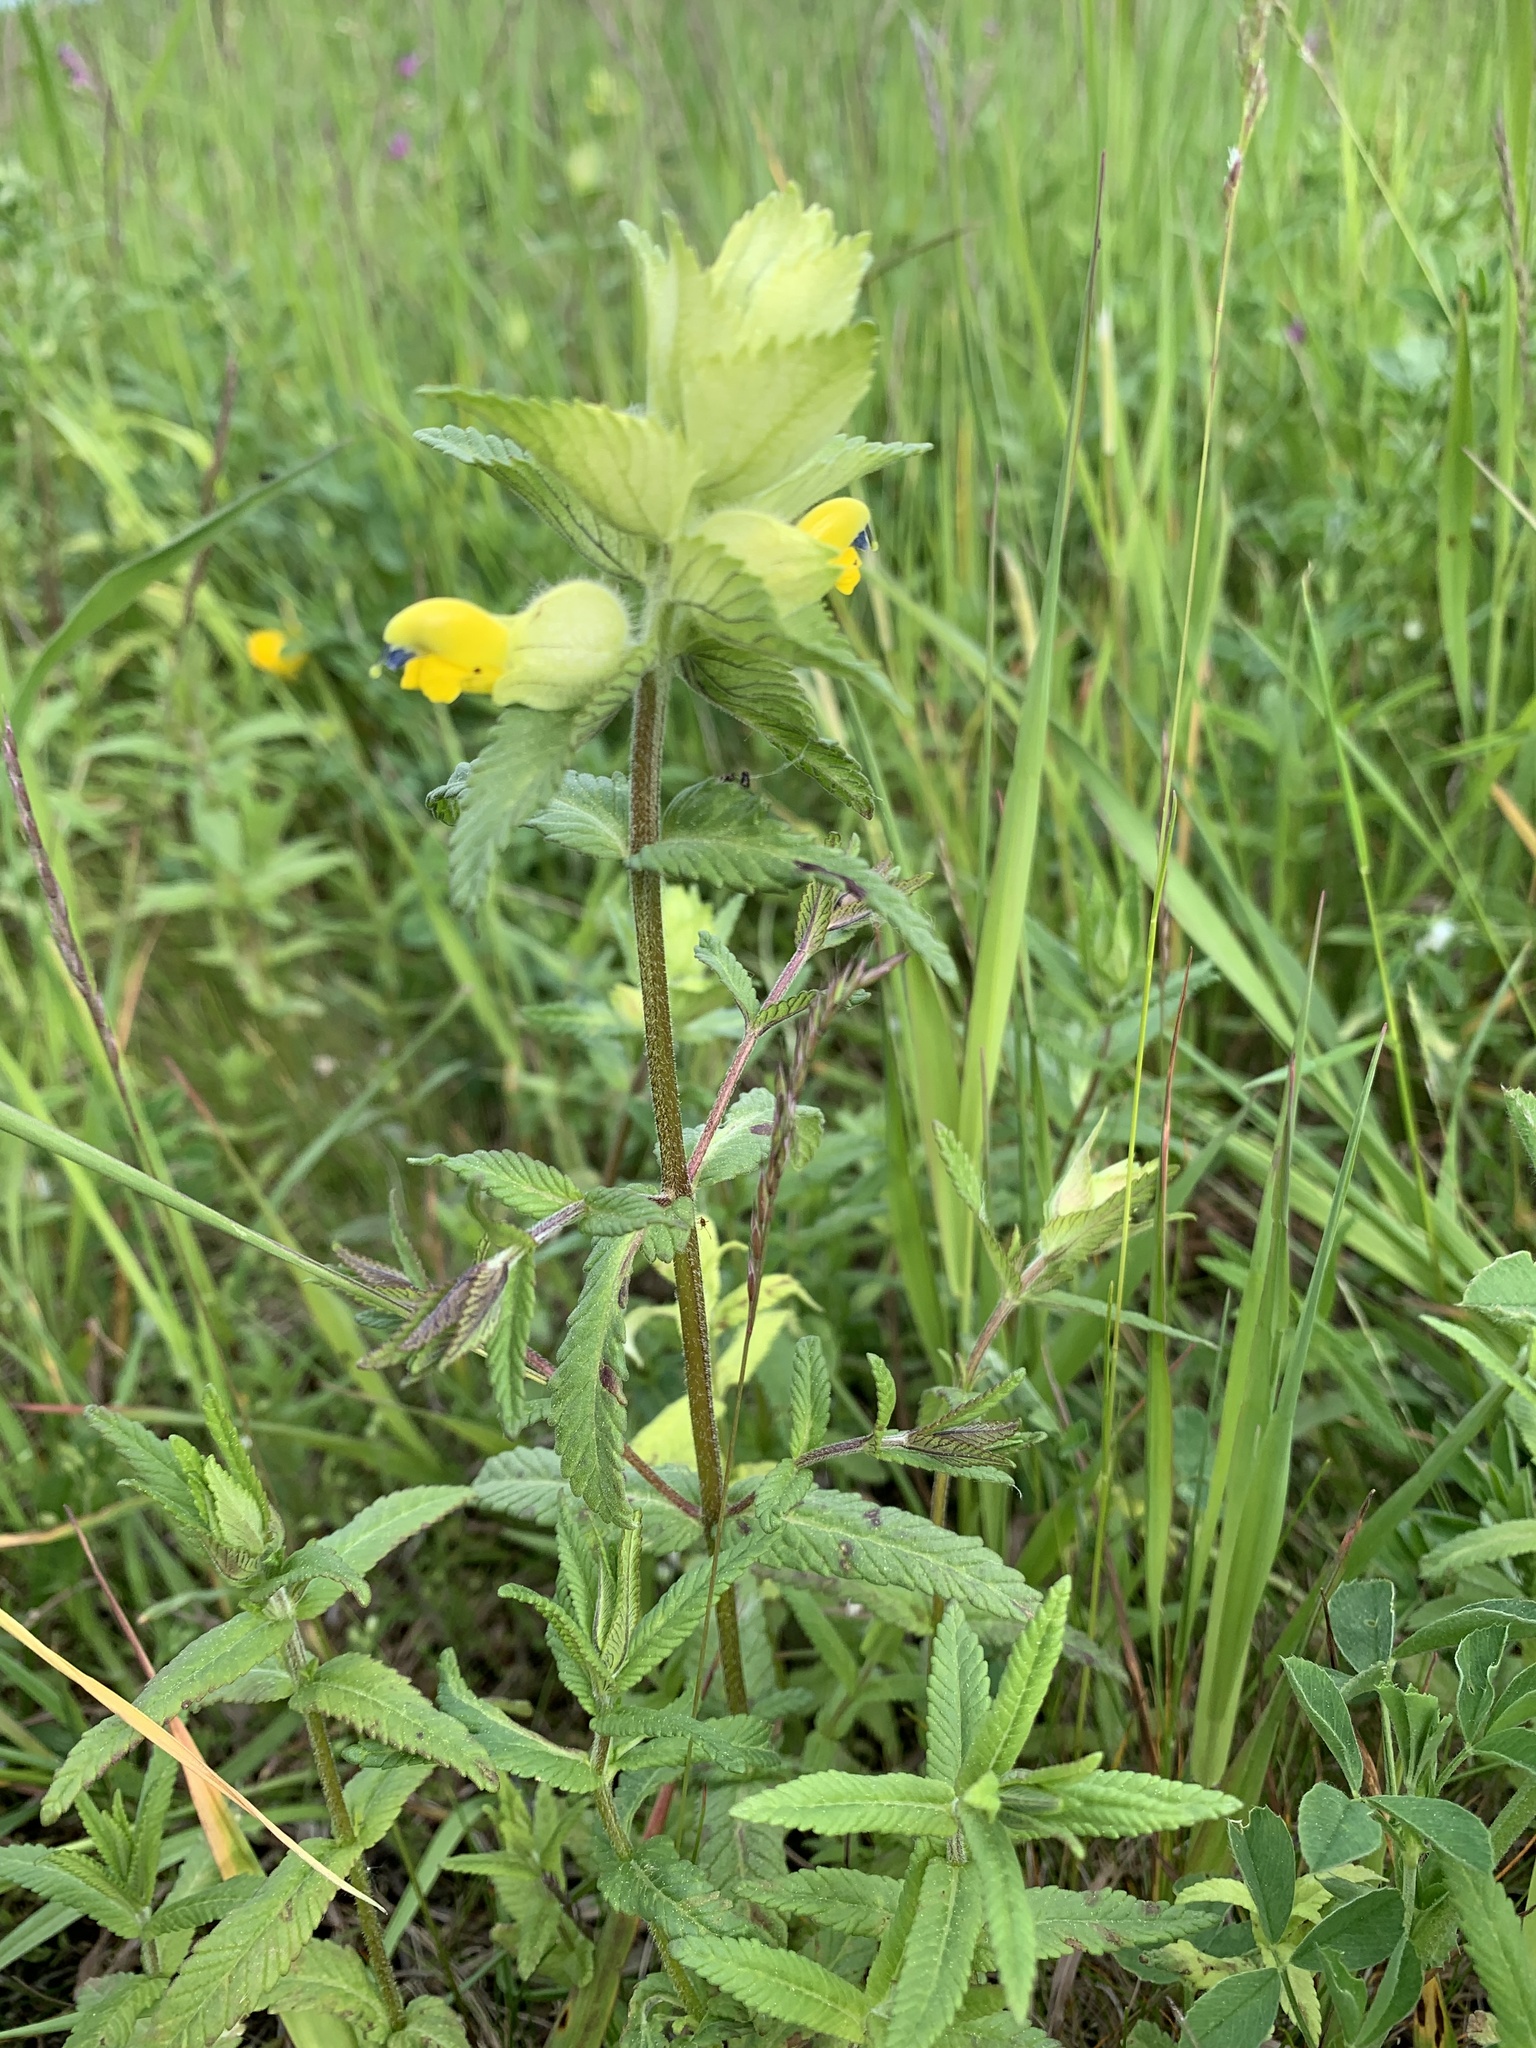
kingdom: Plantae
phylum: Tracheophyta
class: Magnoliopsida
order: Lamiales
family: Orobanchaceae
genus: Rhinanthus
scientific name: Rhinanthus alectorolophus
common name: Greater yellow-rattle
